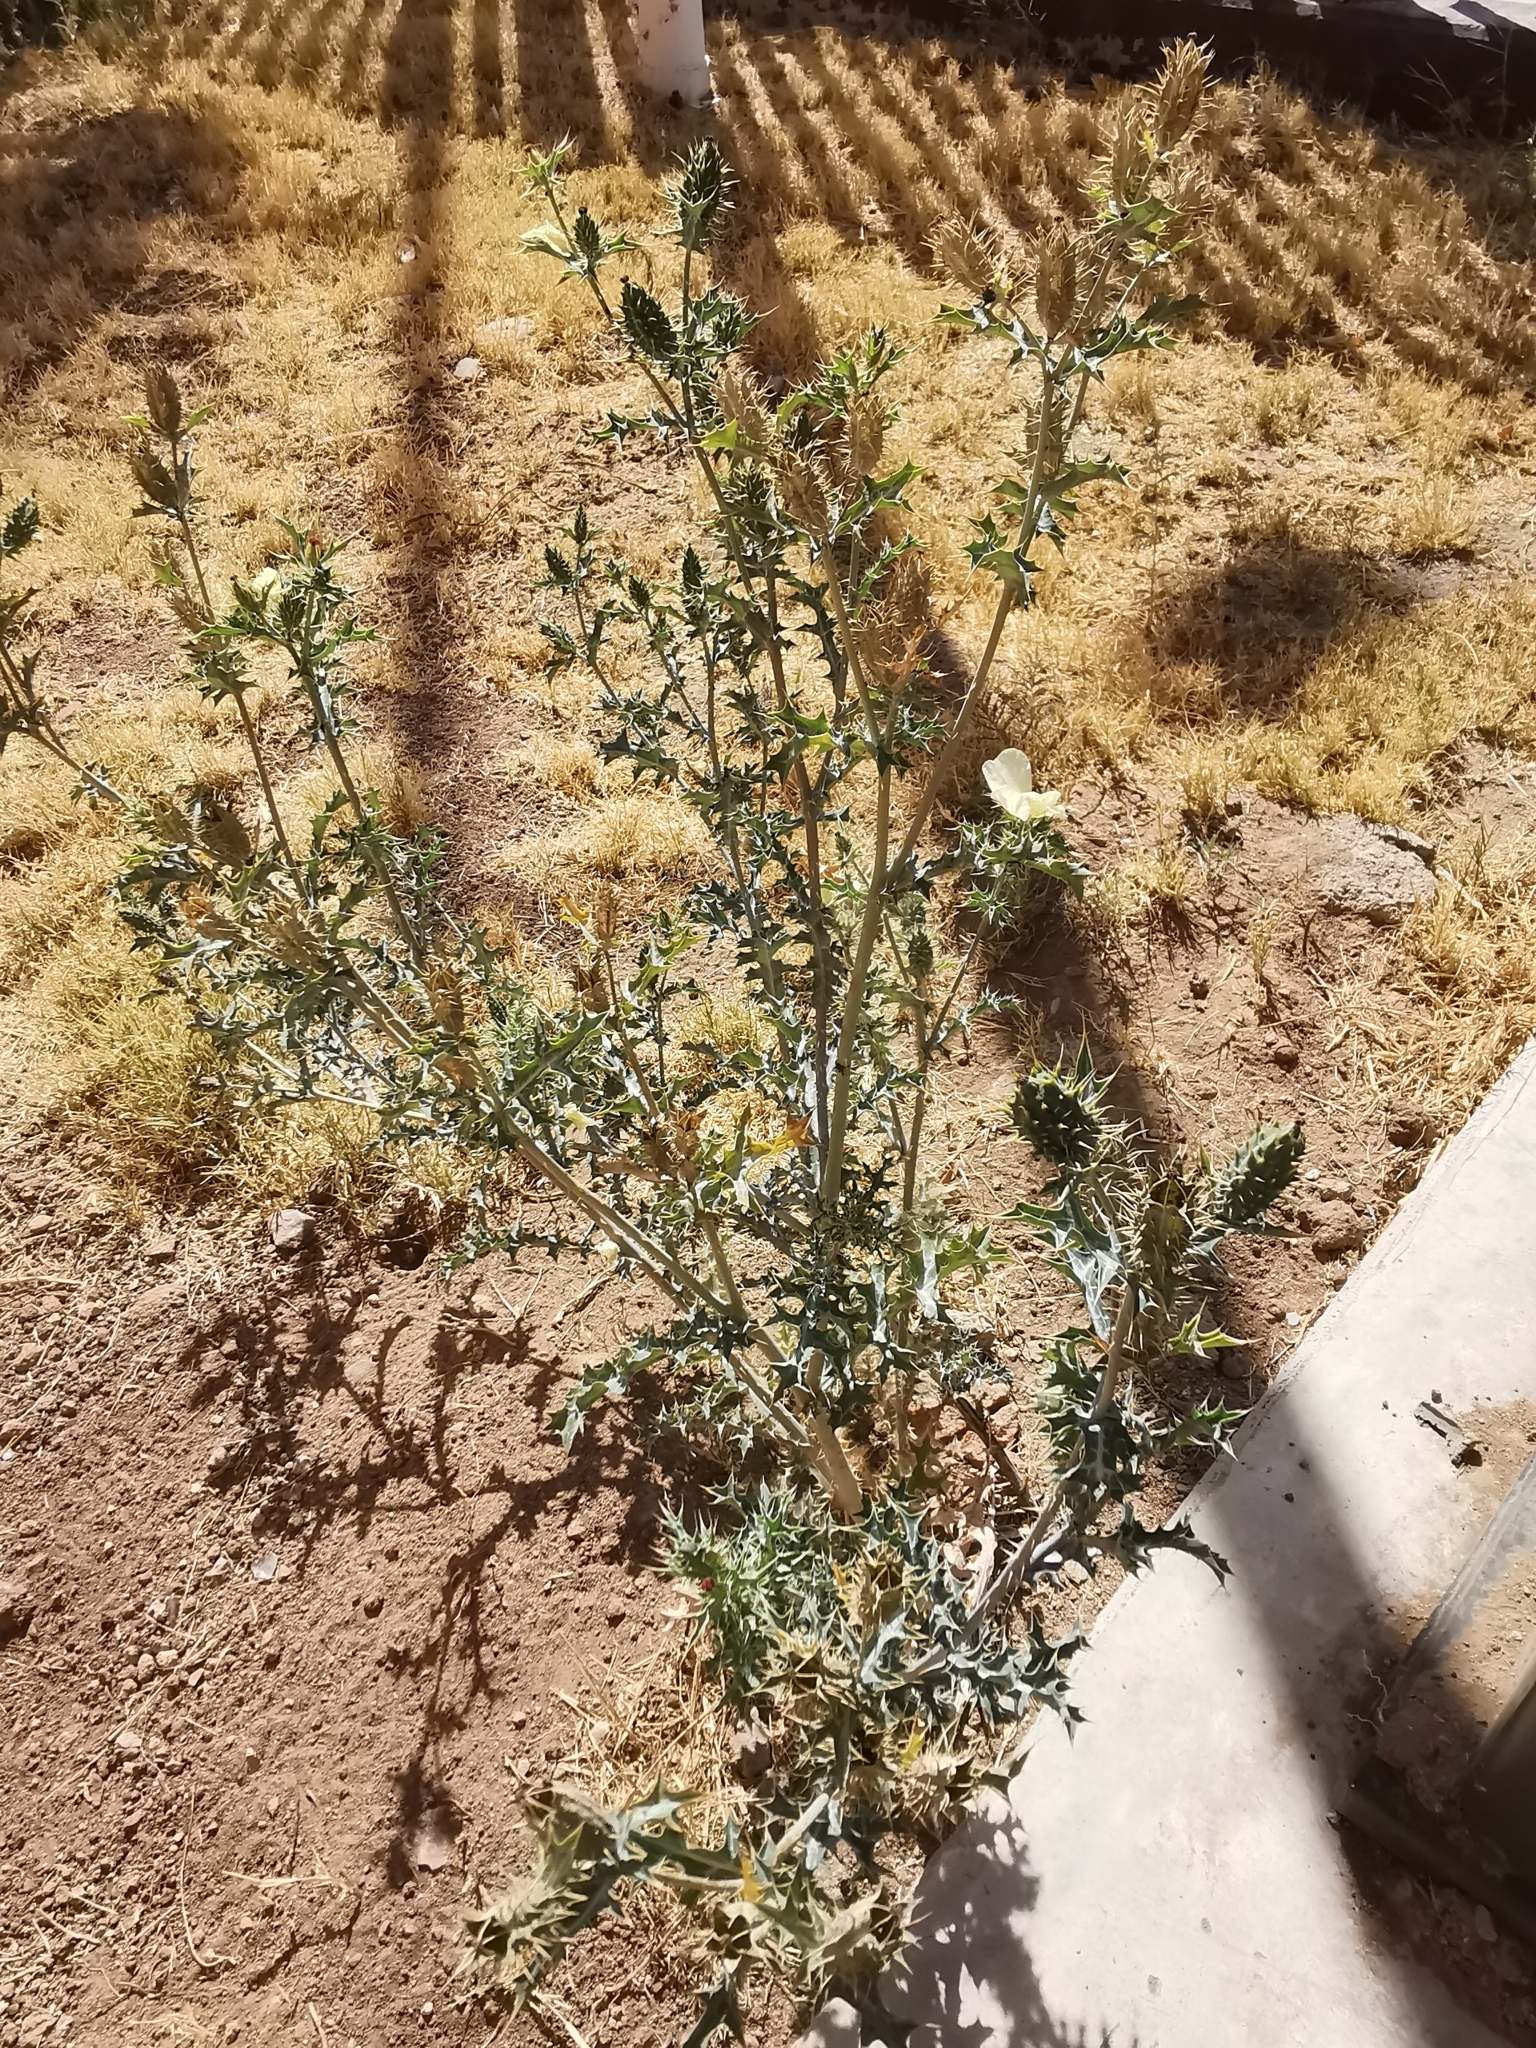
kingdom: Plantae
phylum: Tracheophyta
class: Magnoliopsida
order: Ranunculales
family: Papaveraceae
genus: Argemone
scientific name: Argemone ochroleuca
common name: White-flower mexican-poppy
